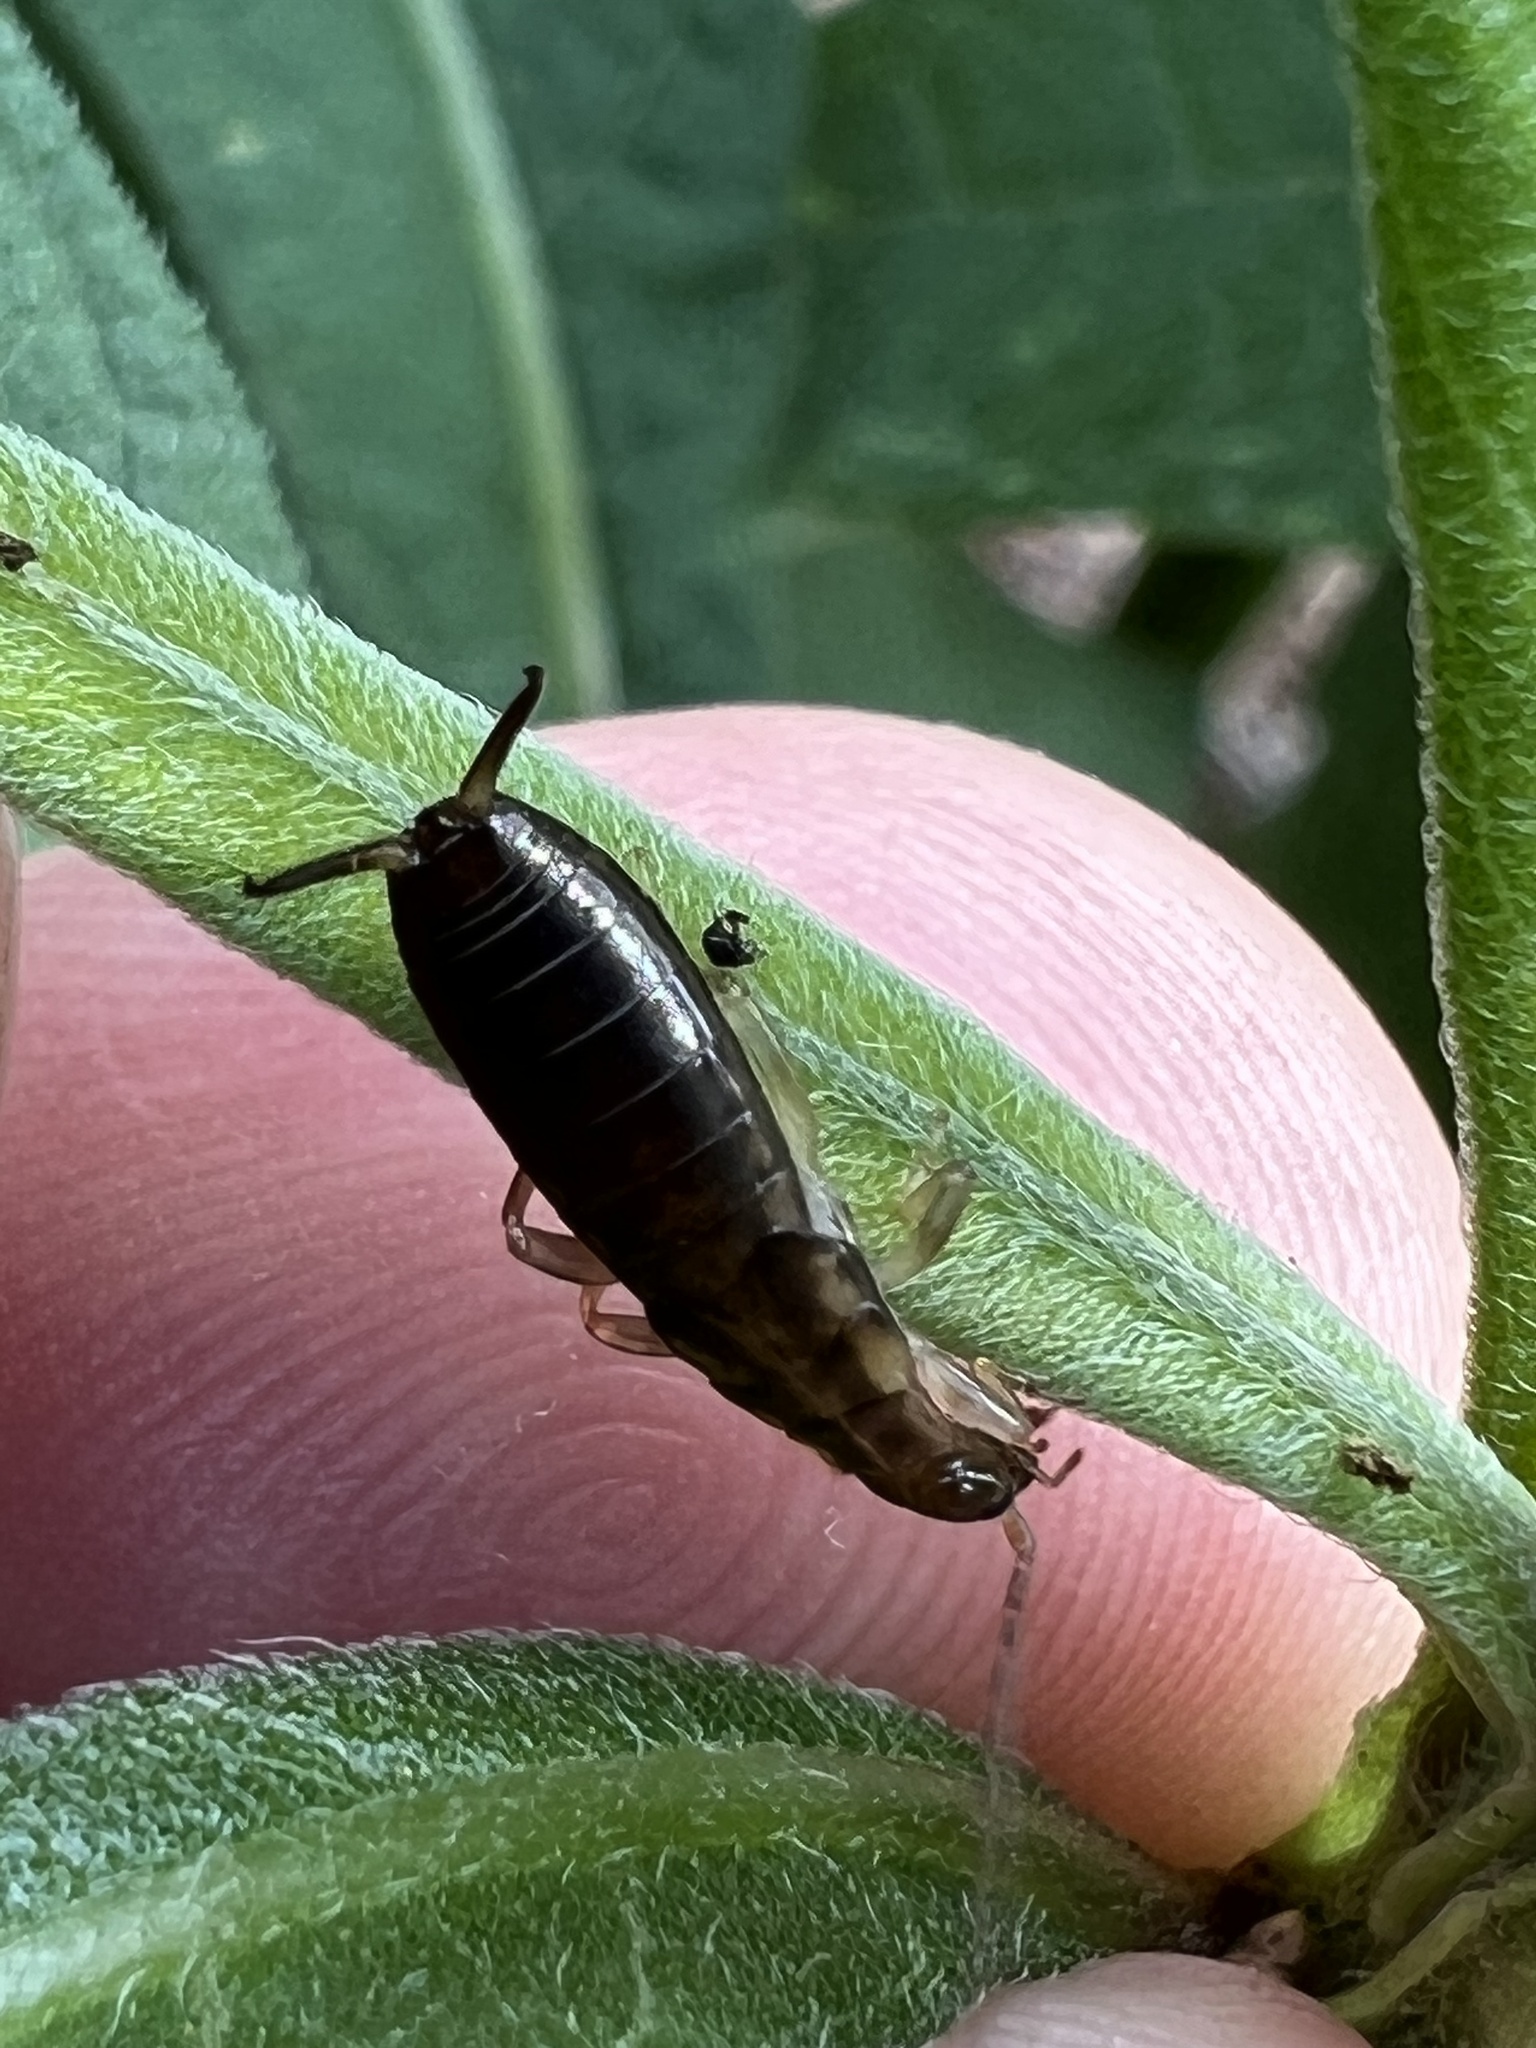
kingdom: Animalia
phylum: Arthropoda
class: Insecta
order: Dermaptera
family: Forficulidae
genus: Forficula
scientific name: Forficula
